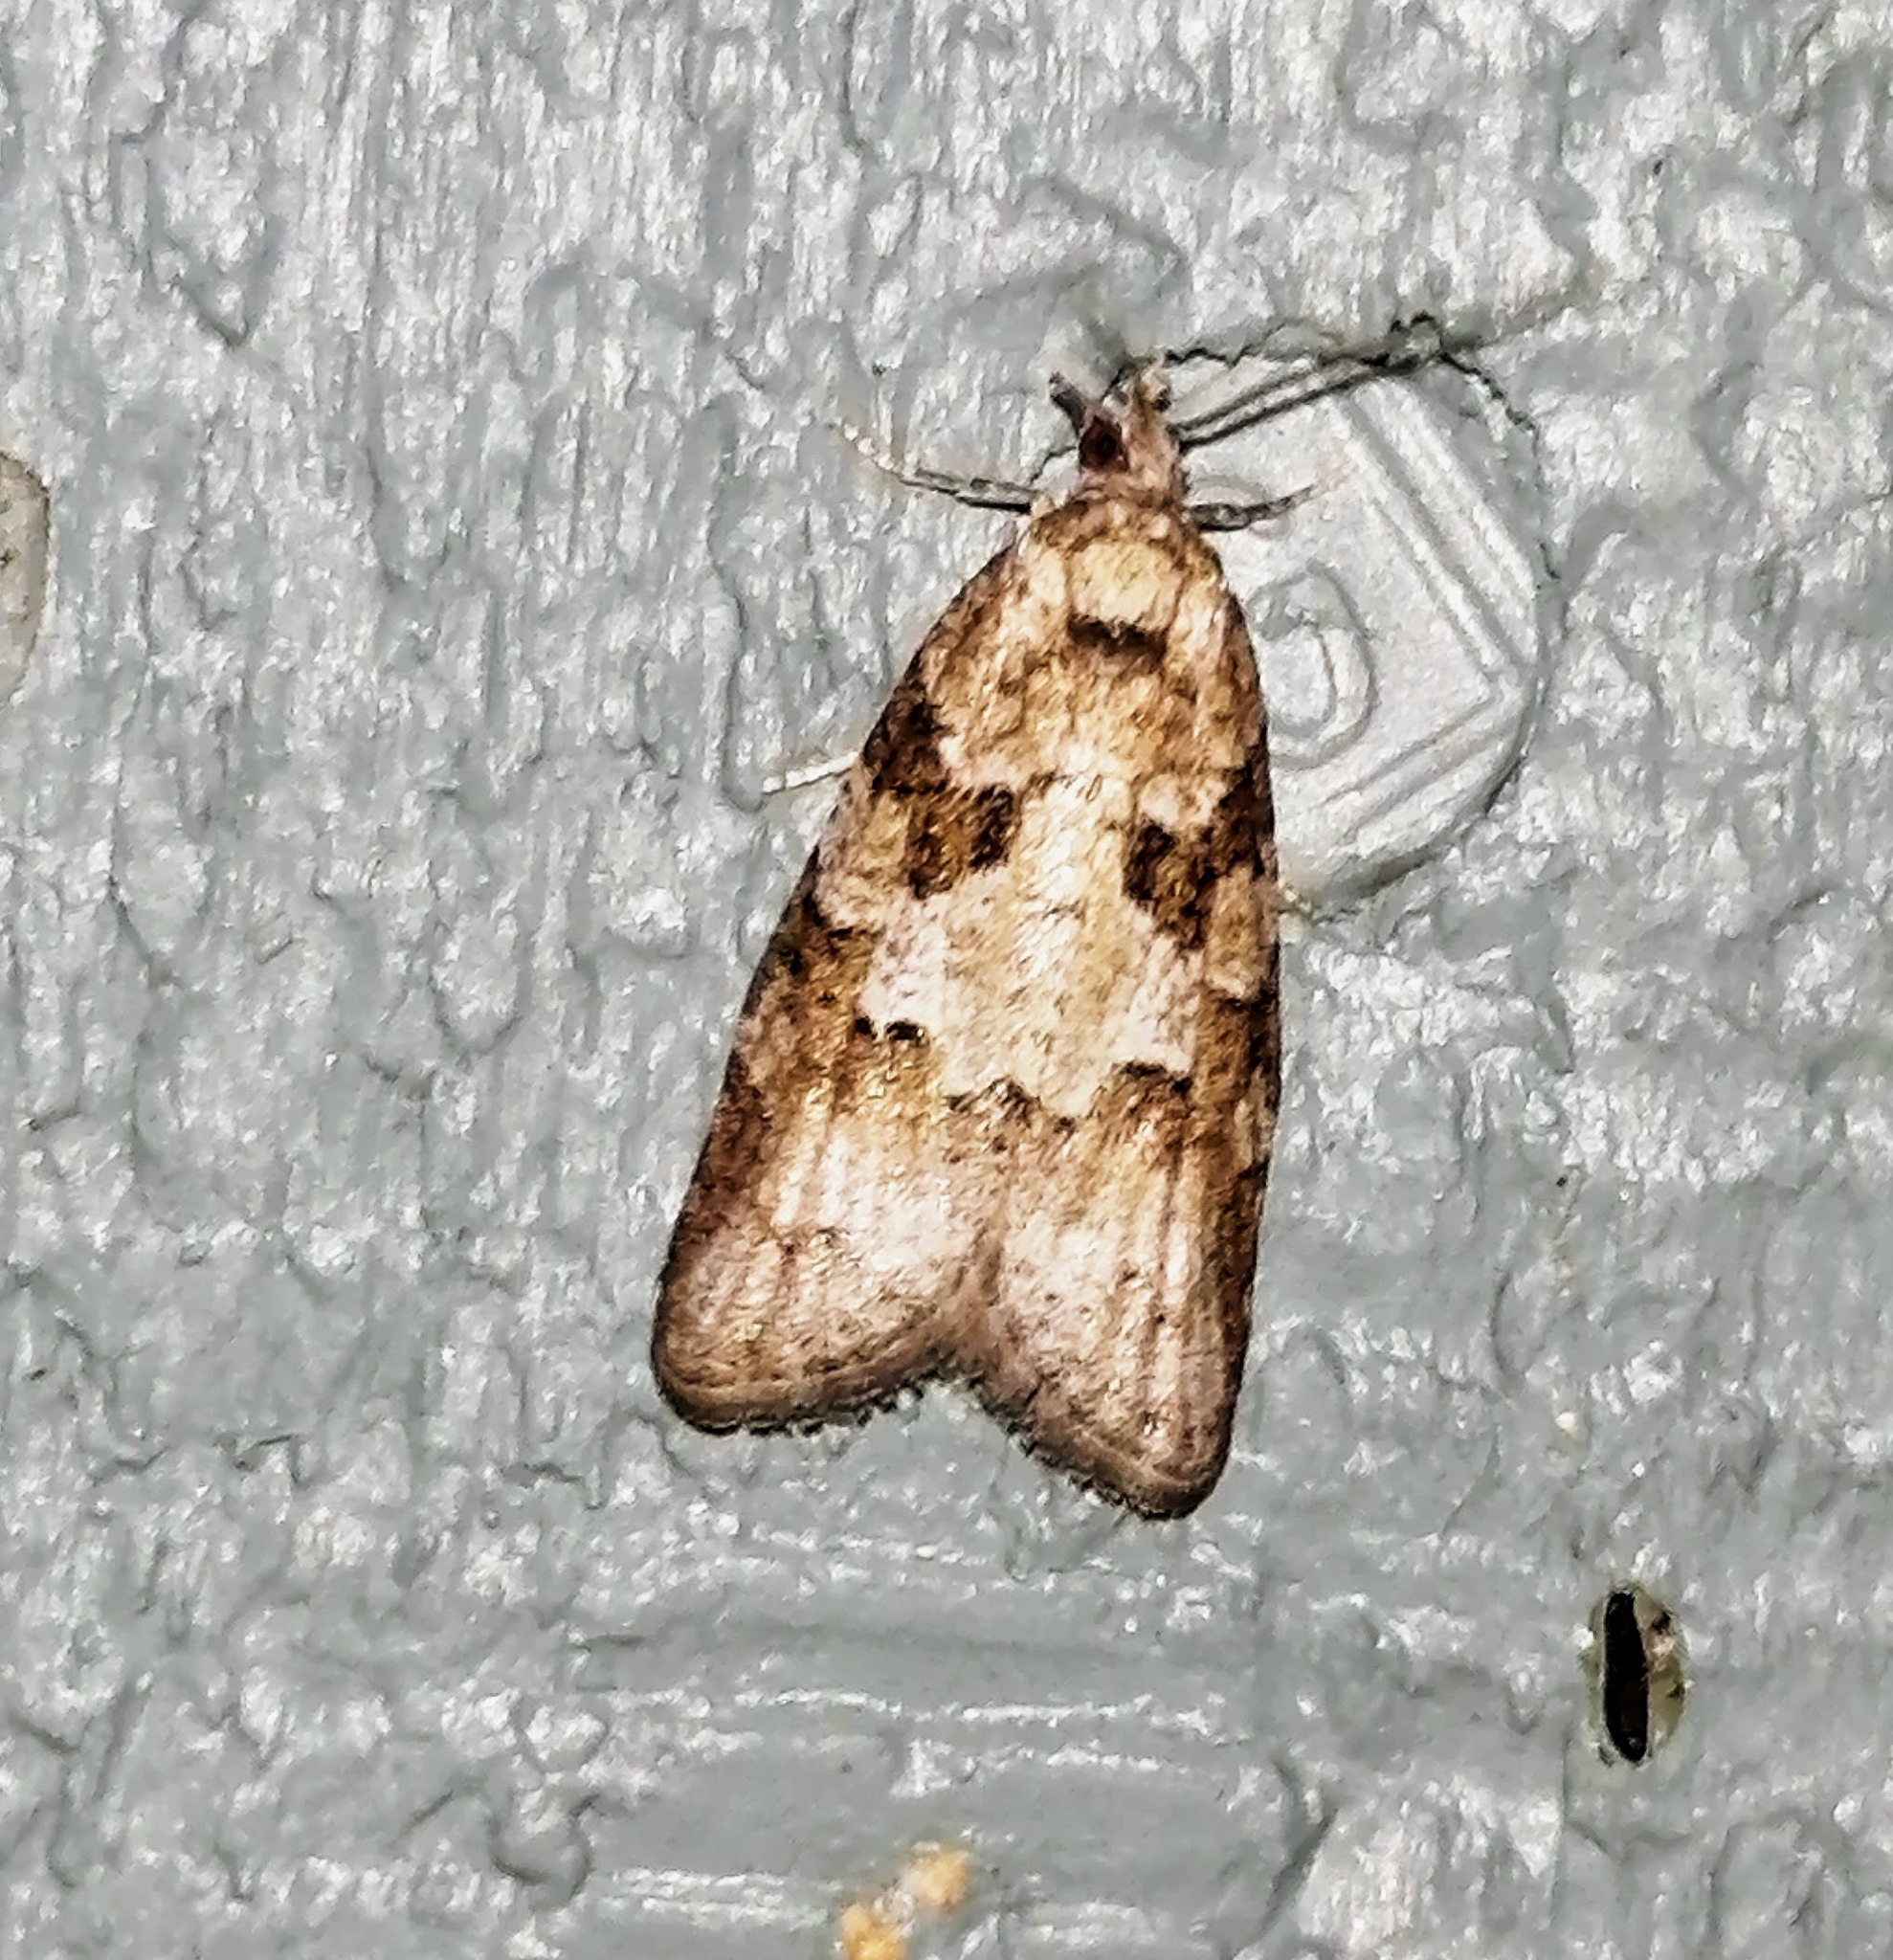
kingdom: Animalia
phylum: Arthropoda
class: Insecta
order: Lepidoptera
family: Tortricidae
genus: Cnephasia
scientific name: Cnephasia stephensiana
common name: Grey tortrix
